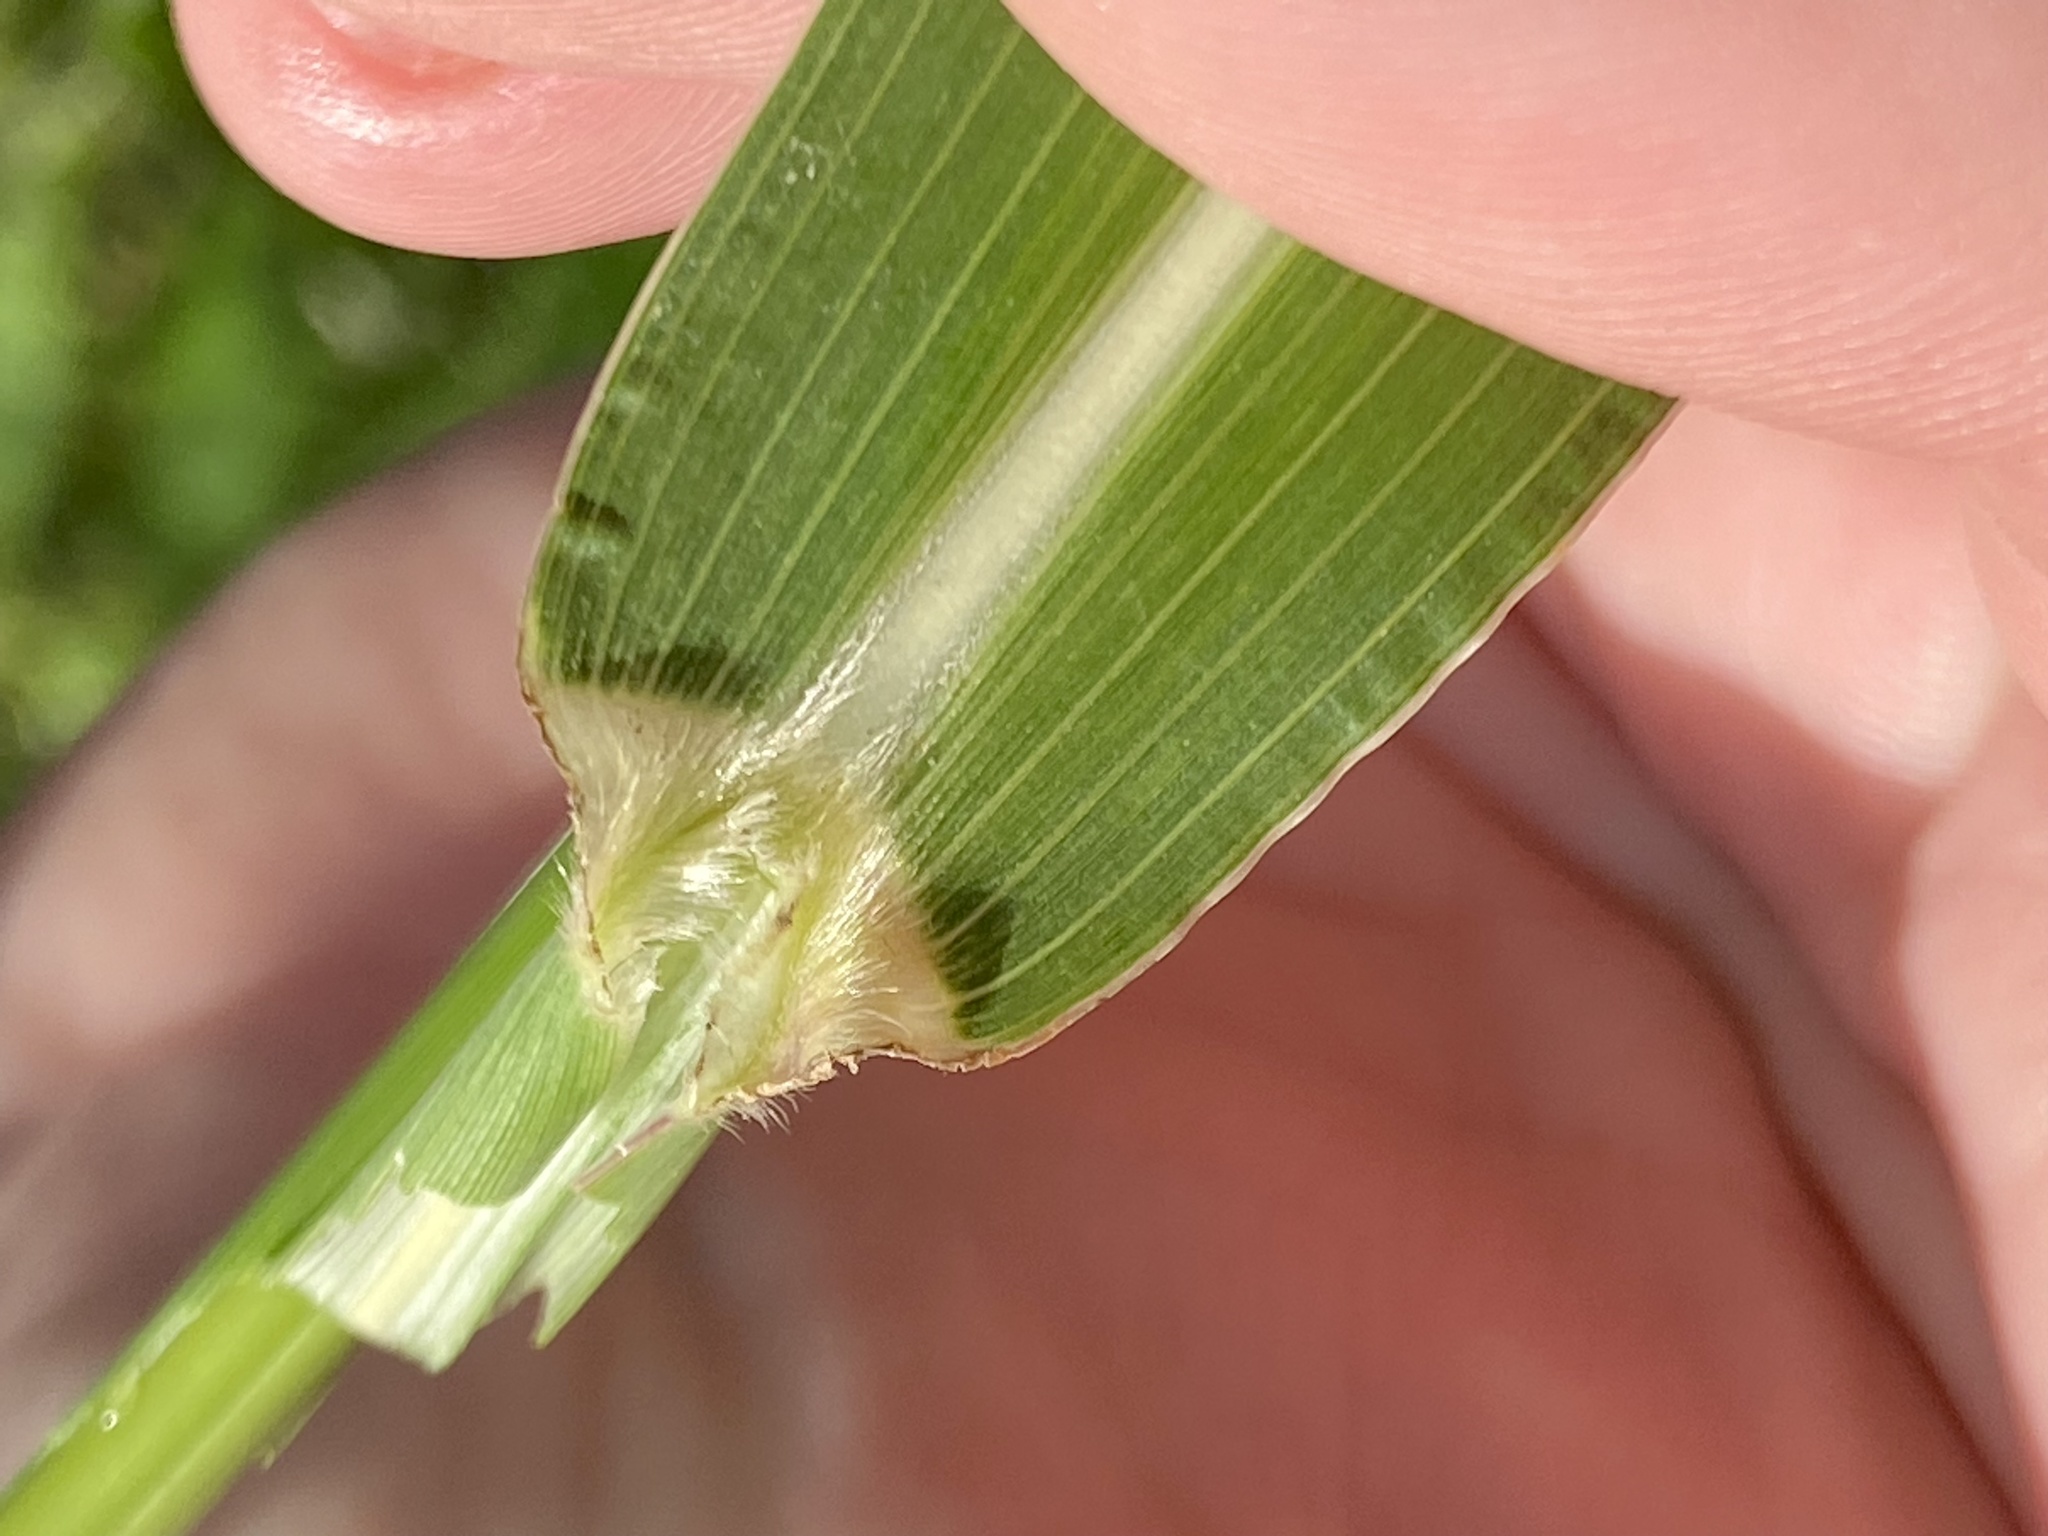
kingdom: Plantae
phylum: Tracheophyta
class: Liliopsida
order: Poales
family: Poaceae
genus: Sorghum
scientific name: Sorghum halepense
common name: Johnson-grass
